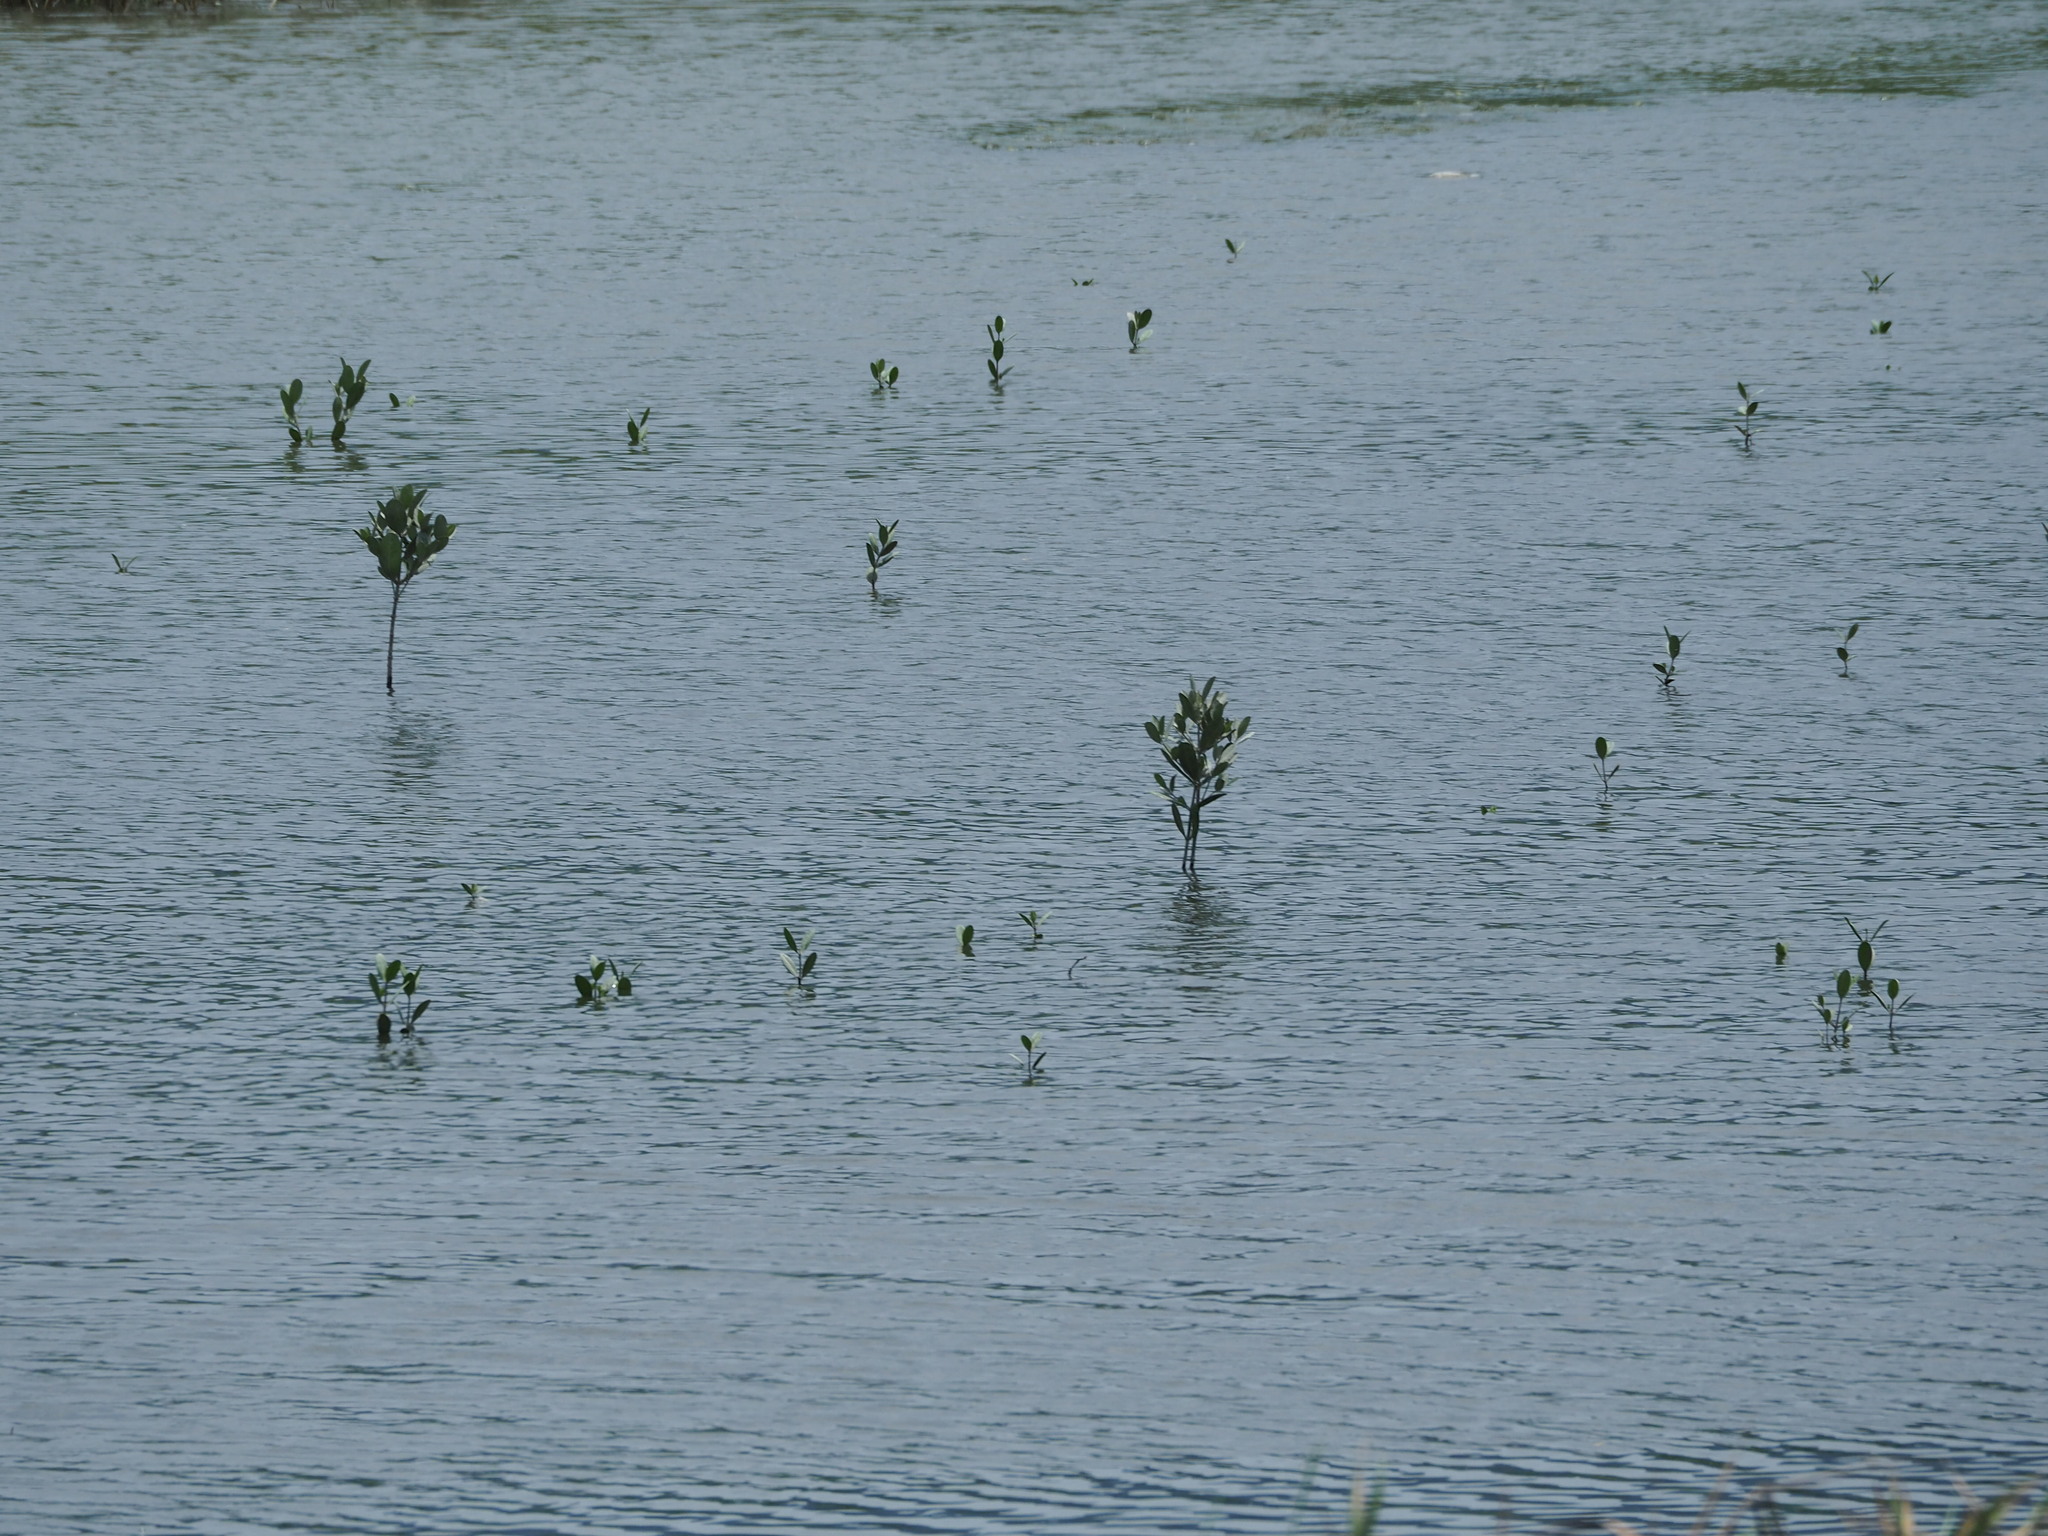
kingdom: Plantae
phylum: Tracheophyta
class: Magnoliopsida
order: Malpighiales
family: Rhizophoraceae
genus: Kandelia
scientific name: Kandelia obovata
